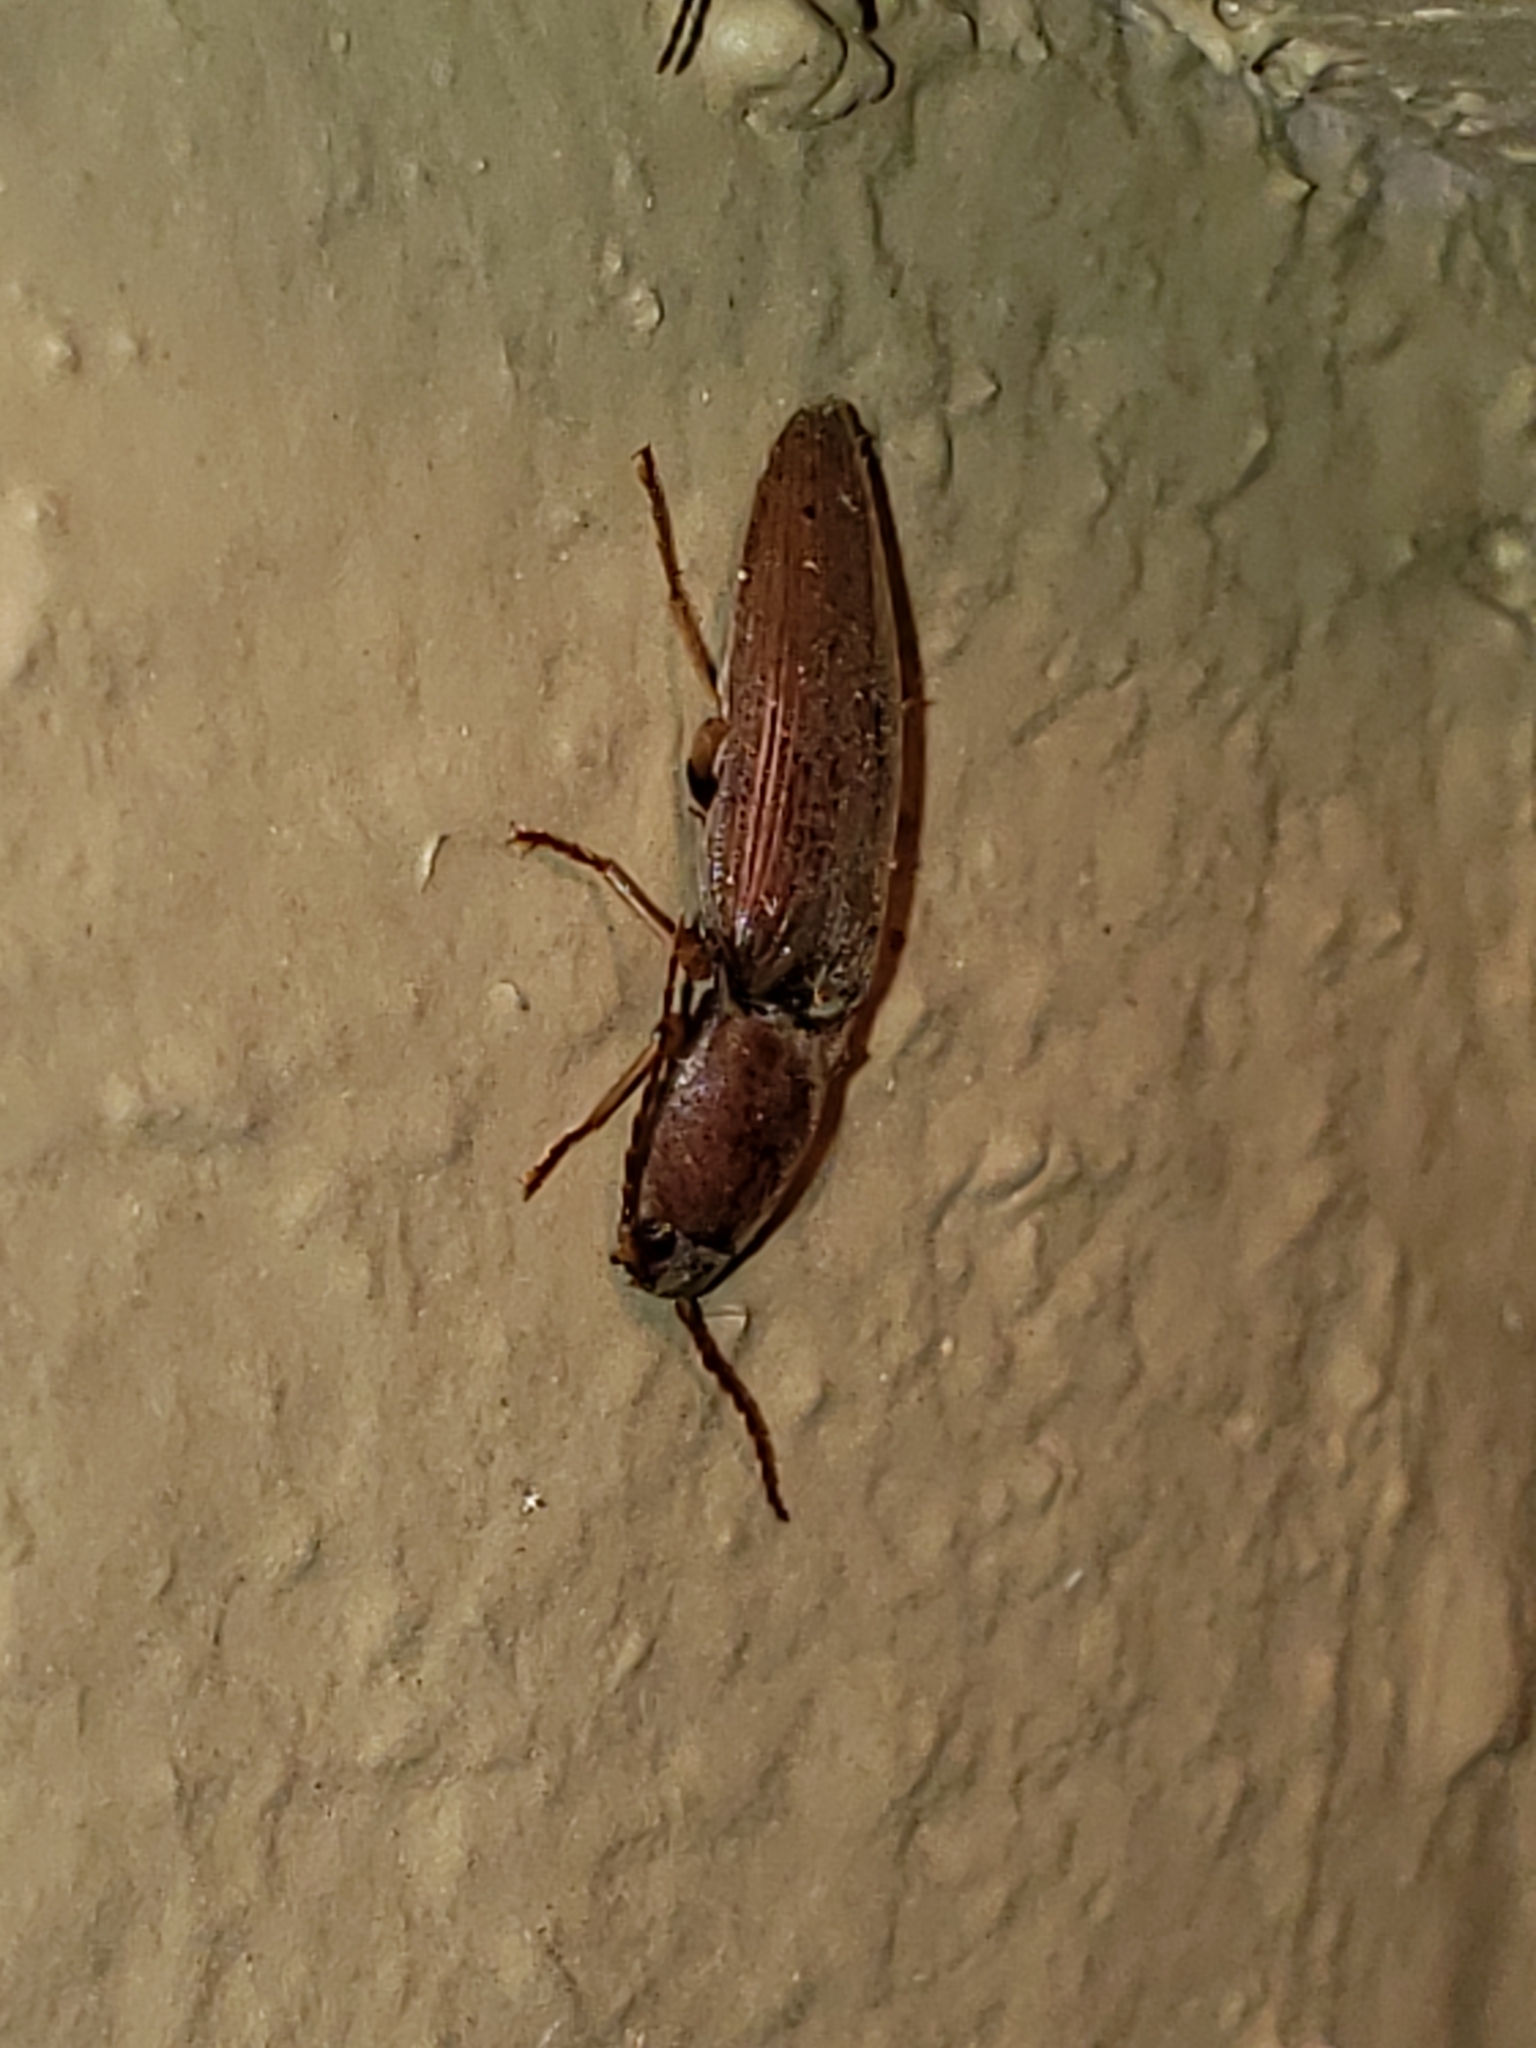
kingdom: Animalia
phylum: Arthropoda
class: Insecta
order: Coleoptera
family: Elateridae
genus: Monocrepidius
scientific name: Monocrepidius lividus
